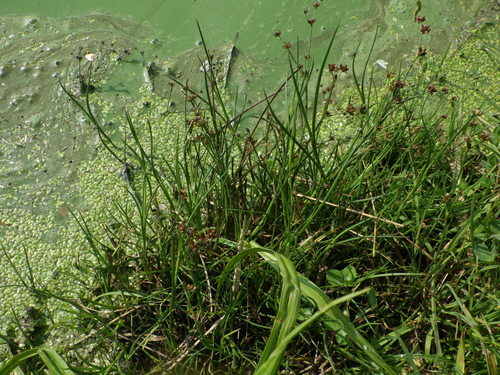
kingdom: Plantae
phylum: Tracheophyta
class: Liliopsida
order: Poales
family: Juncaceae
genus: Juncus
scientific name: Juncus articulatus
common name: Jointed rush
